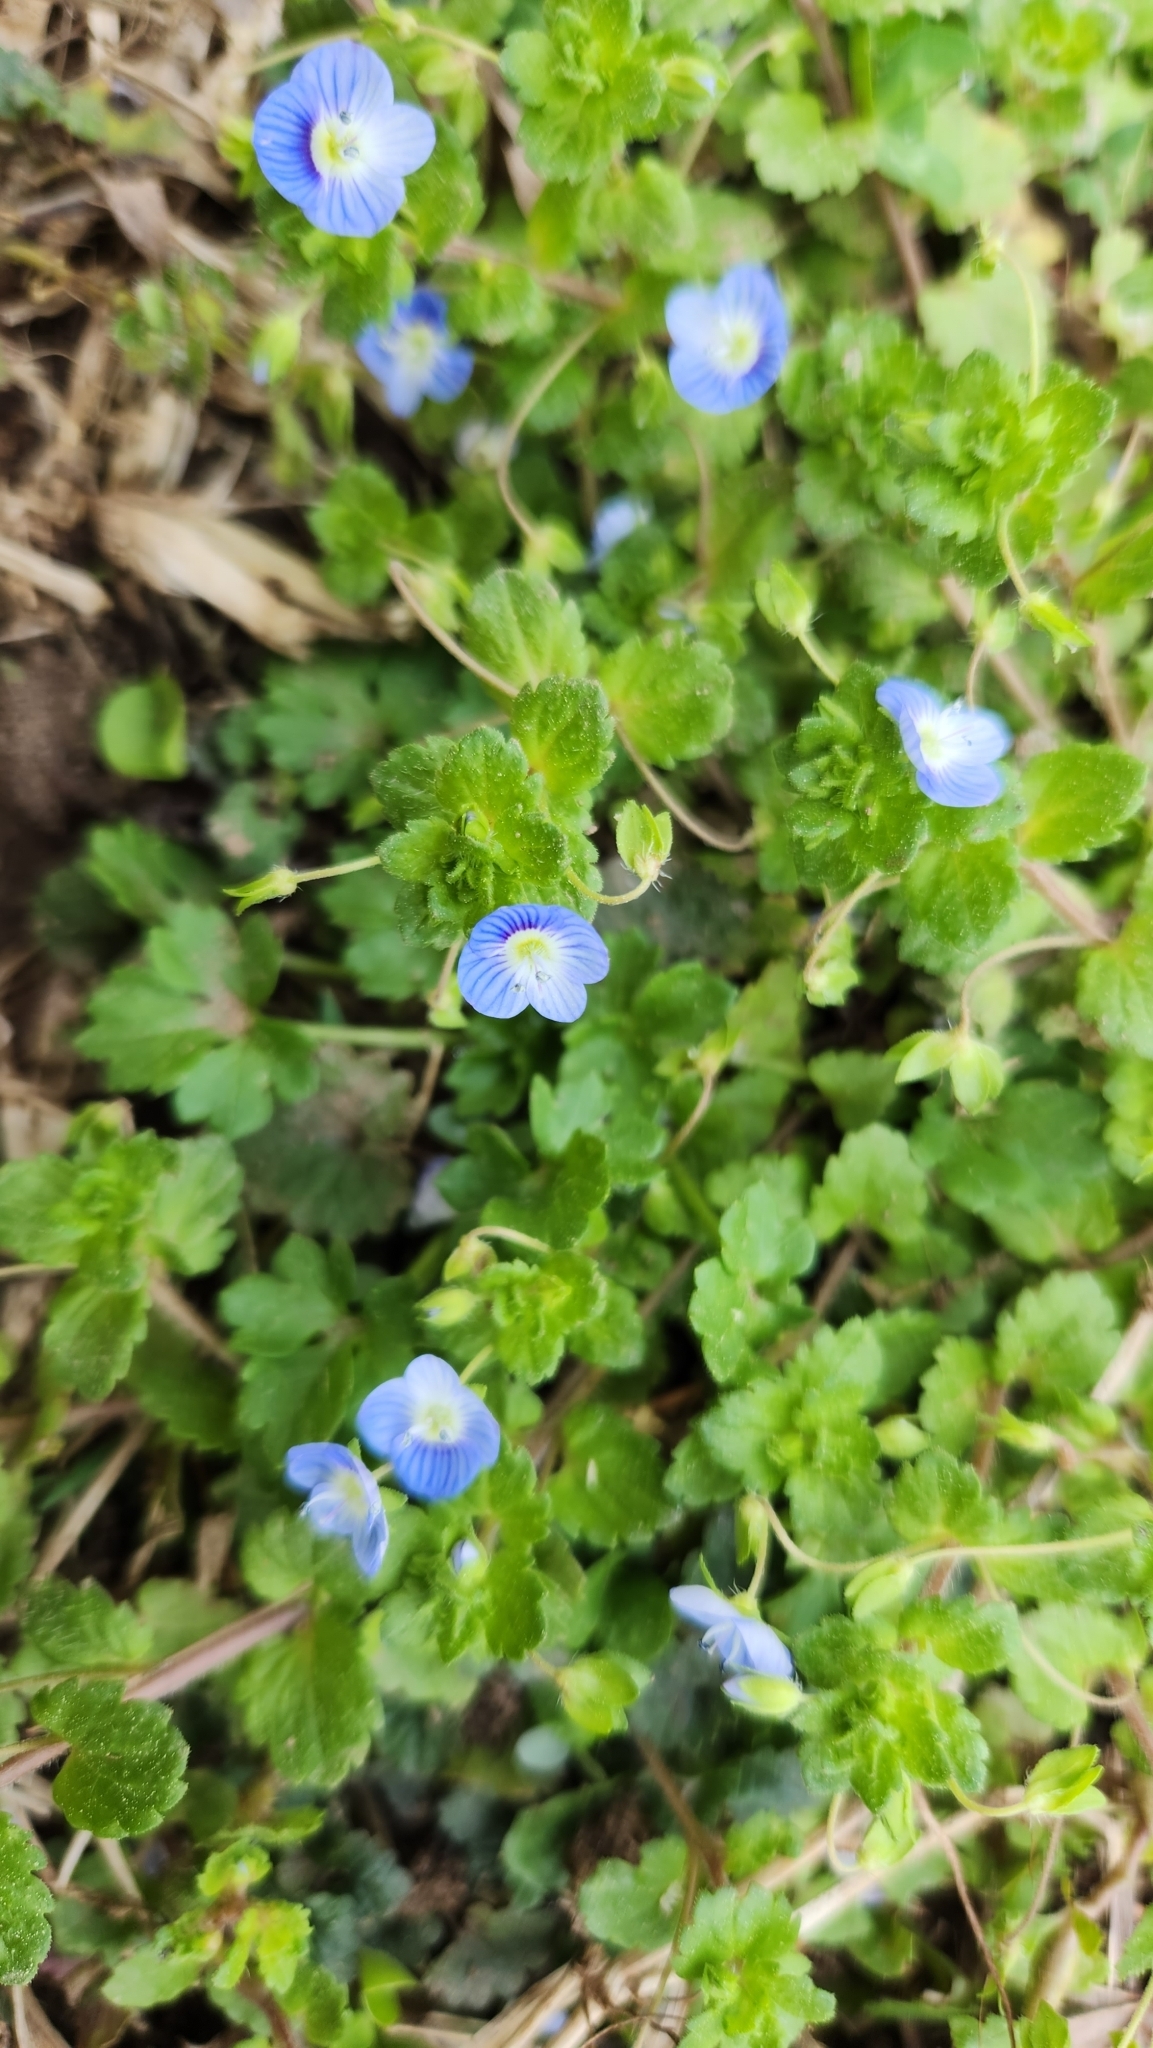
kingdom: Plantae
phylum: Tracheophyta
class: Magnoliopsida
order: Lamiales
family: Plantaginaceae
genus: Veronica
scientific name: Veronica persica
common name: Common field-speedwell
